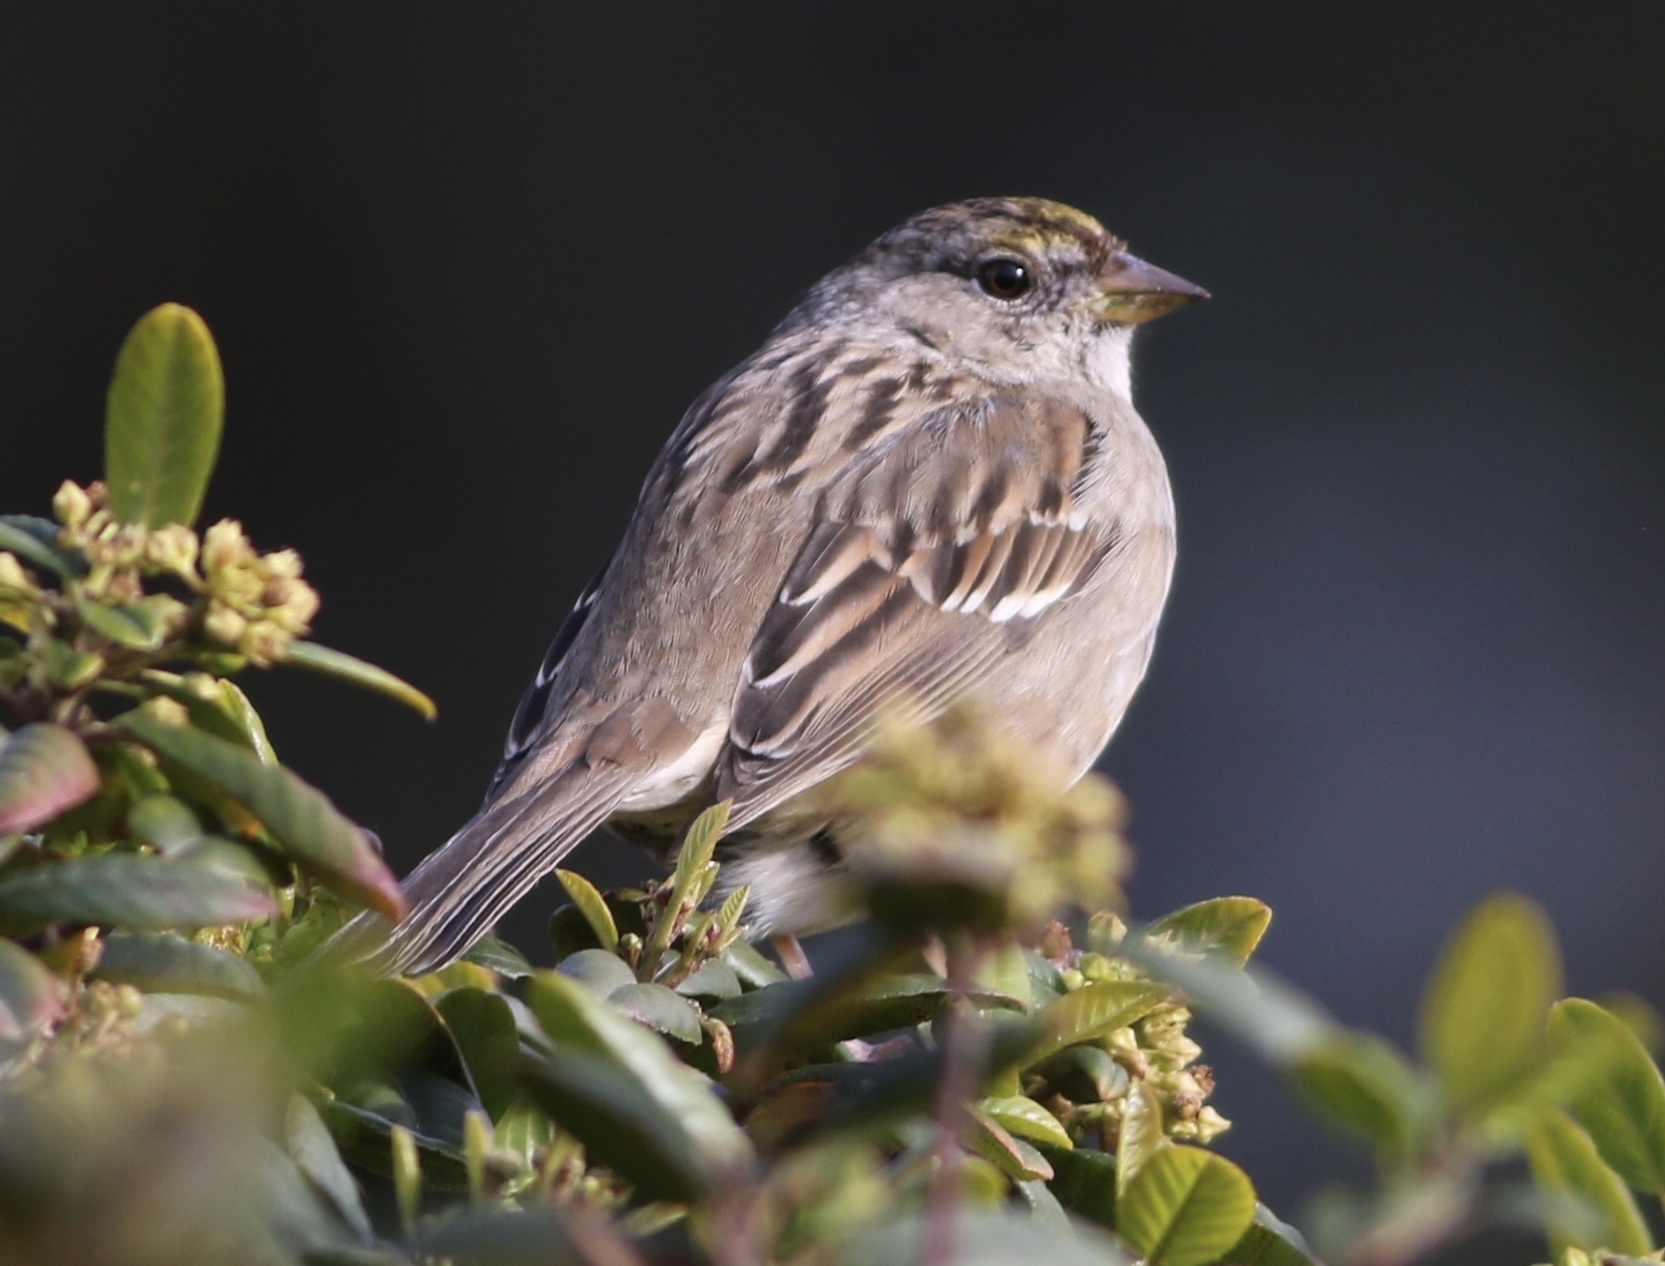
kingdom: Animalia
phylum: Chordata
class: Aves
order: Passeriformes
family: Passerellidae
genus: Zonotrichia
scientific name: Zonotrichia atricapilla
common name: Golden-crowned sparrow
